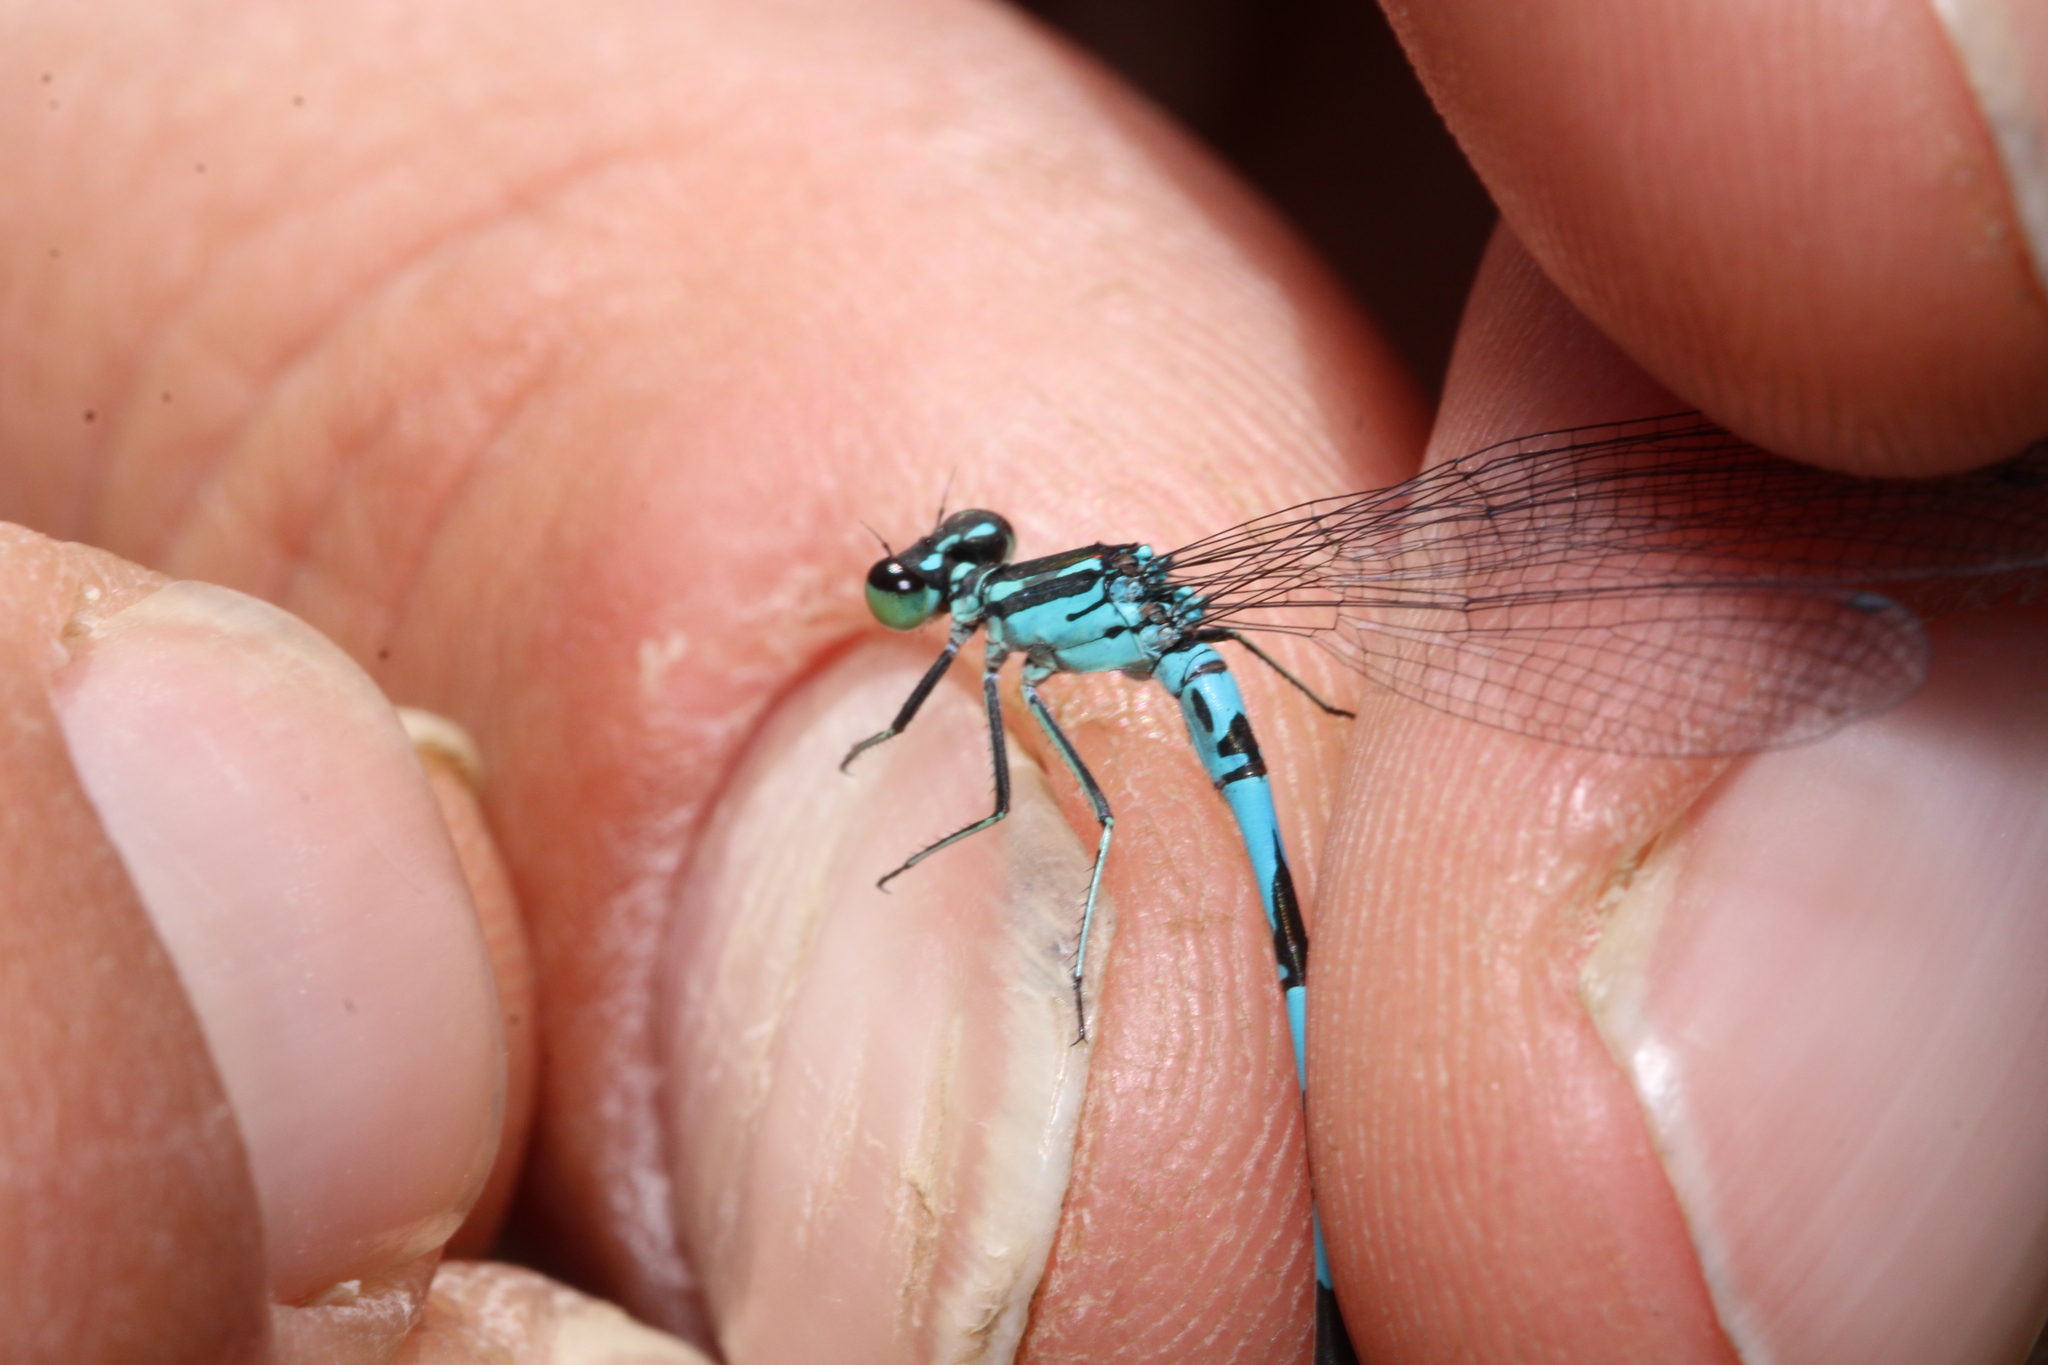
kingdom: Animalia
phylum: Arthropoda
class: Insecta
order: Odonata
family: Coenagrionidae
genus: Coenagrion
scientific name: Coenagrion hastulatum
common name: Spearhead bluet
